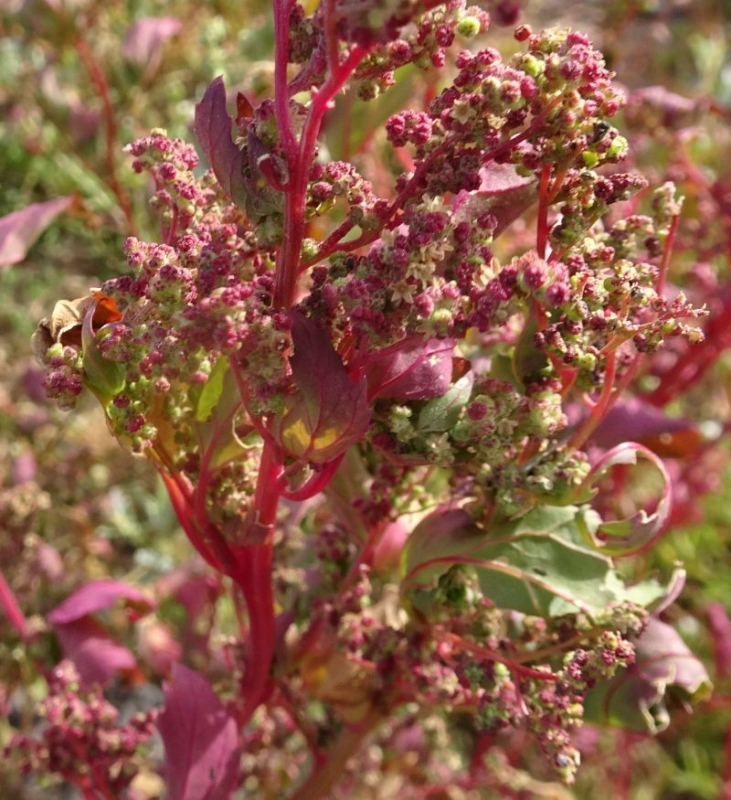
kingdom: Plantae
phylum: Tracheophyta
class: Magnoliopsida
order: Caryophyllales
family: Amaranthaceae
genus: Chenopodiastrum
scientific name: Chenopodiastrum murale
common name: Sowbane
